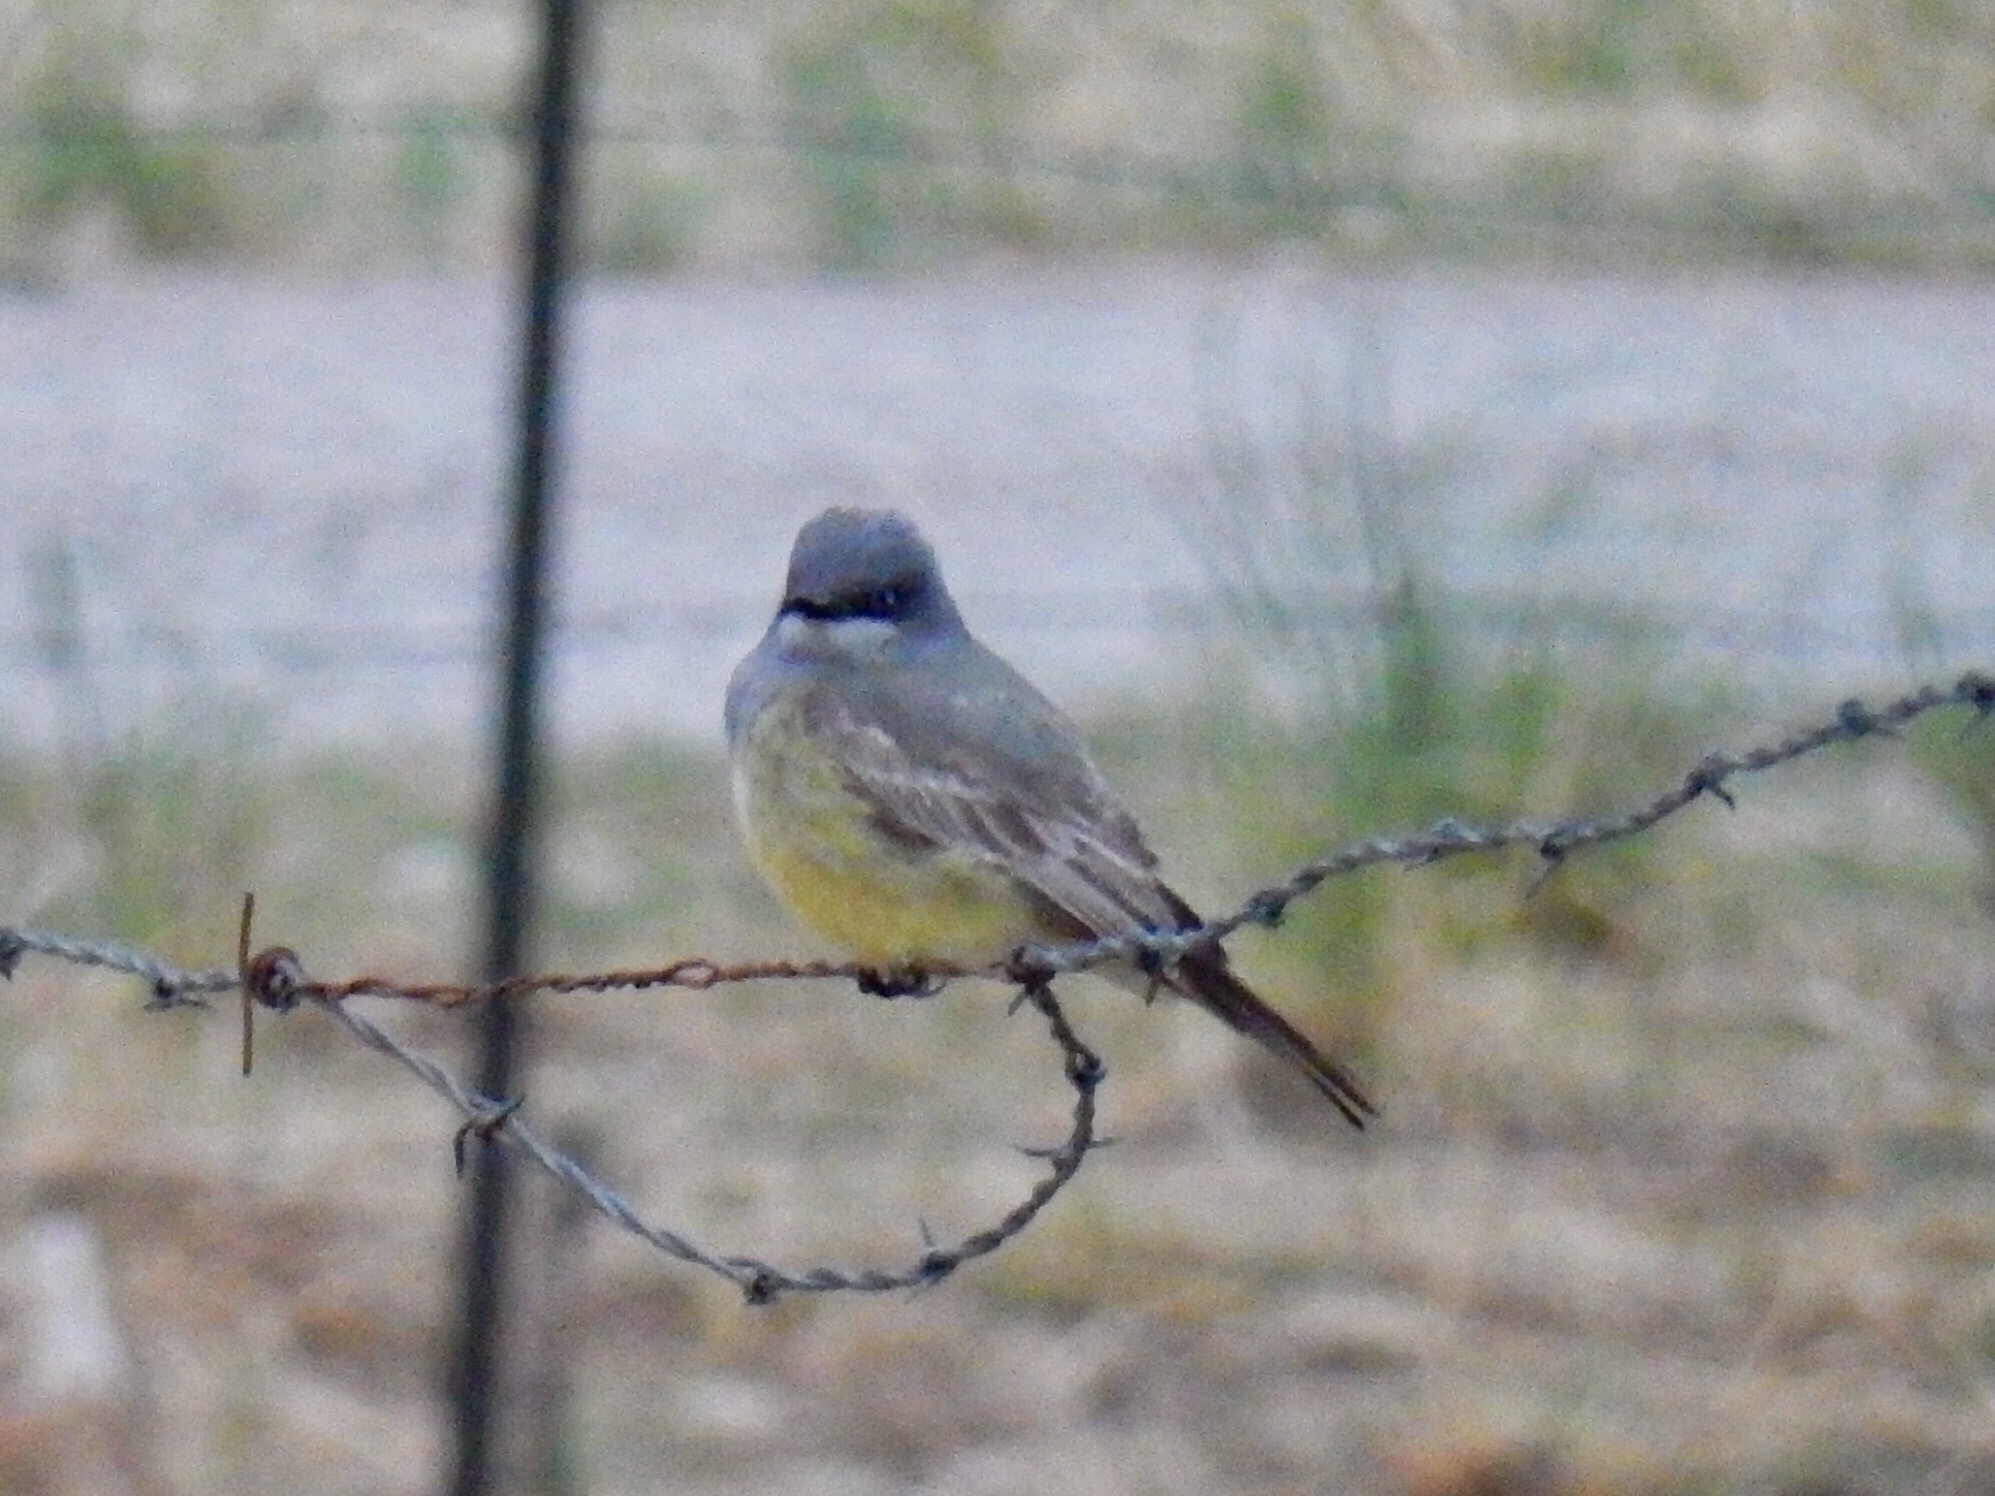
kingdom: Animalia
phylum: Chordata
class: Aves
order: Passeriformes
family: Tyrannidae
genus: Tyrannus
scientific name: Tyrannus vociferans
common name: Cassin's kingbird
